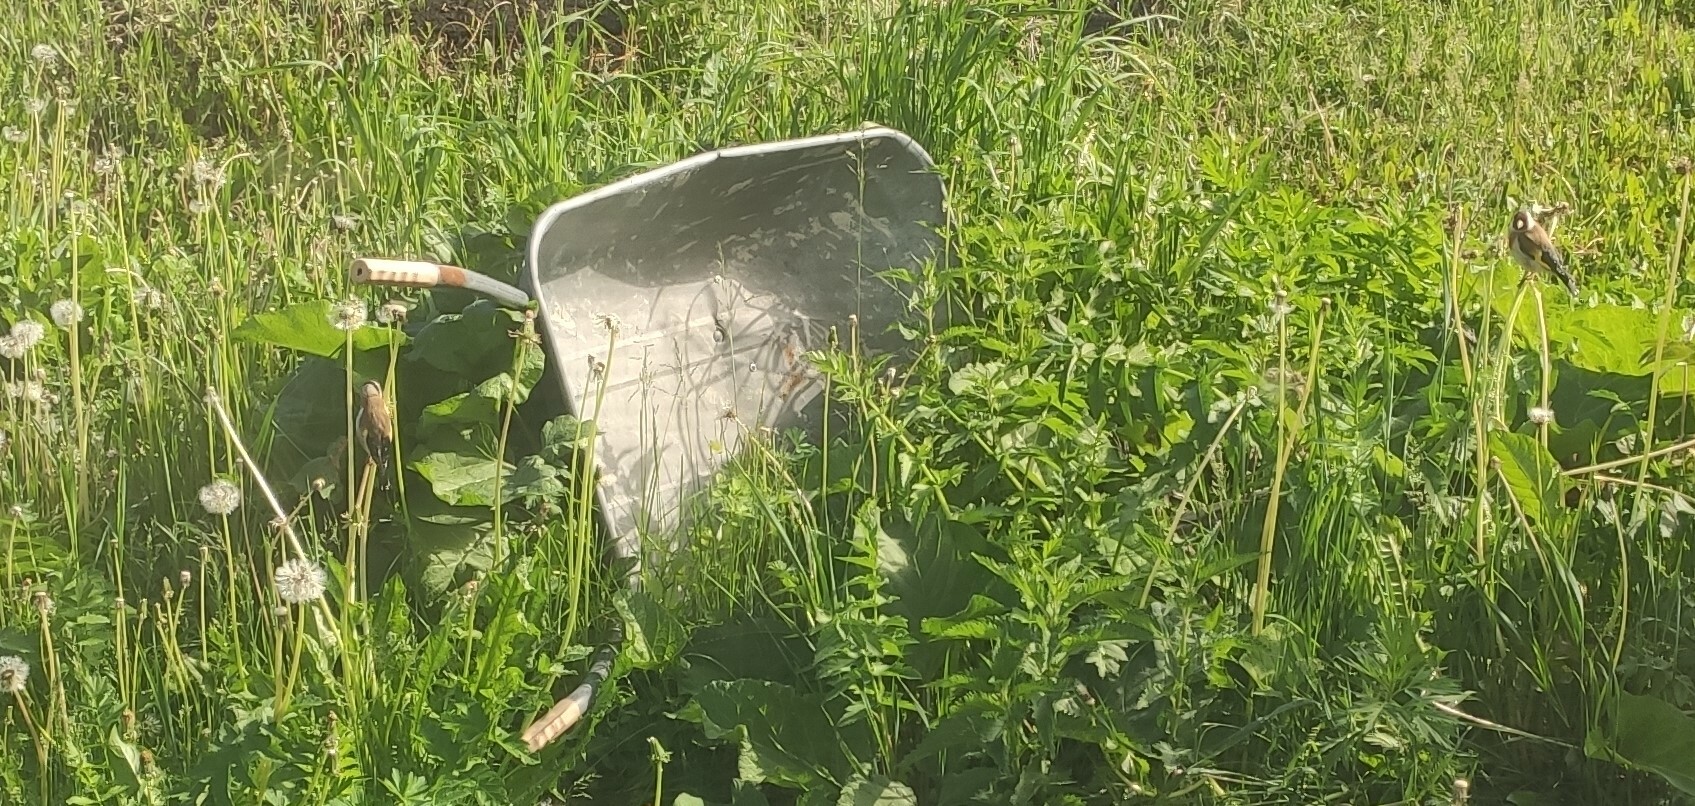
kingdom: Animalia
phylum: Chordata
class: Aves
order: Passeriformes
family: Fringillidae
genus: Carduelis
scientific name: Carduelis carduelis
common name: European goldfinch
